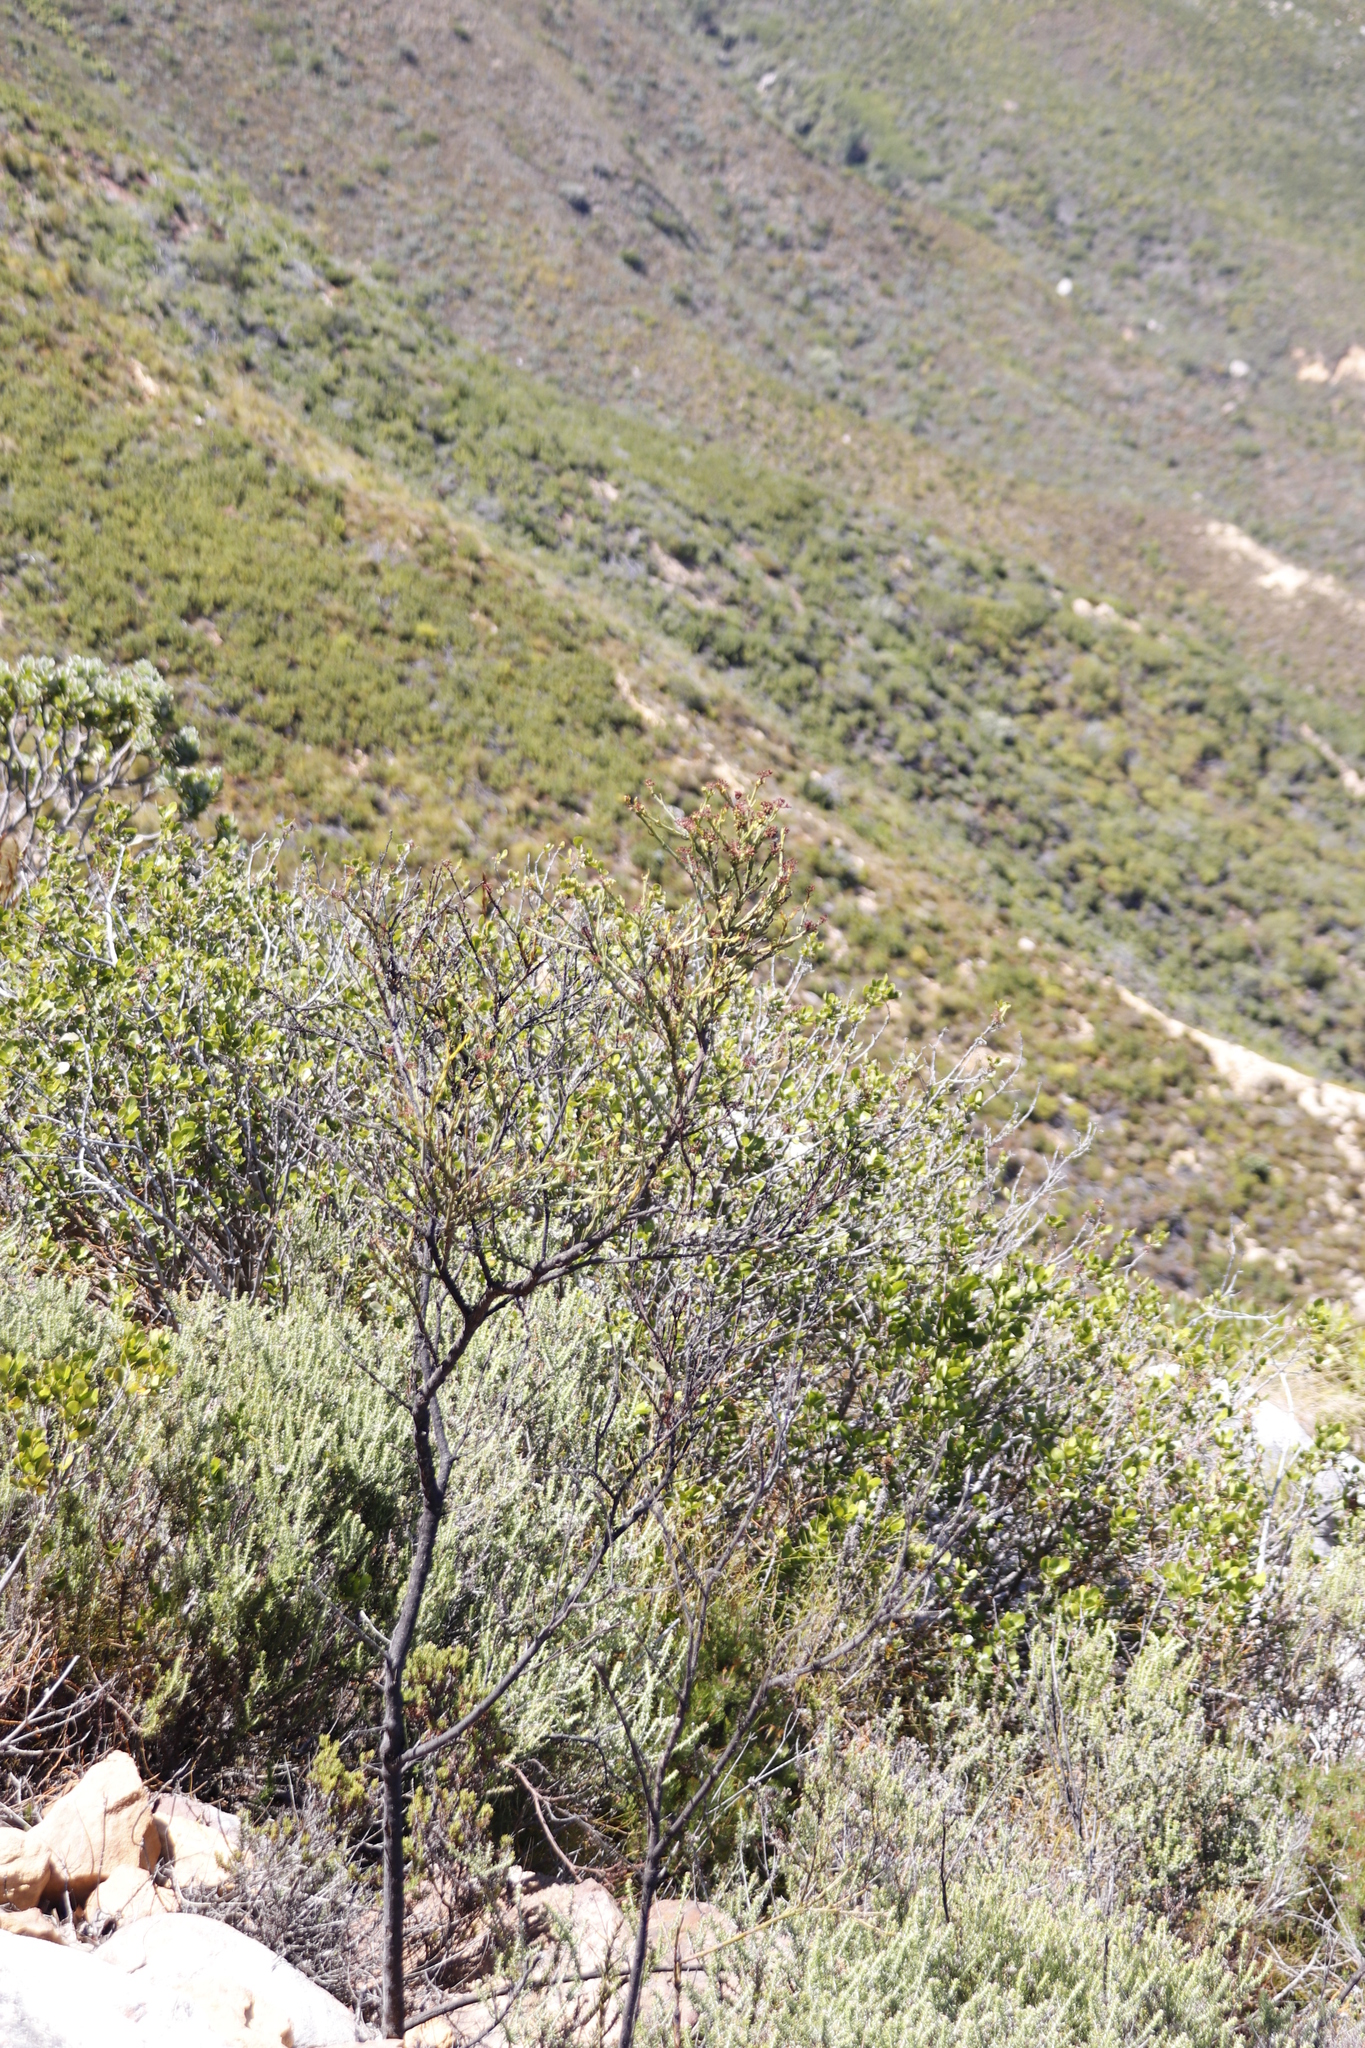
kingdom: Plantae
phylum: Tracheophyta
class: Magnoliopsida
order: Santalales
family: Thesiaceae
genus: Thesium
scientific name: Thesium strictum
